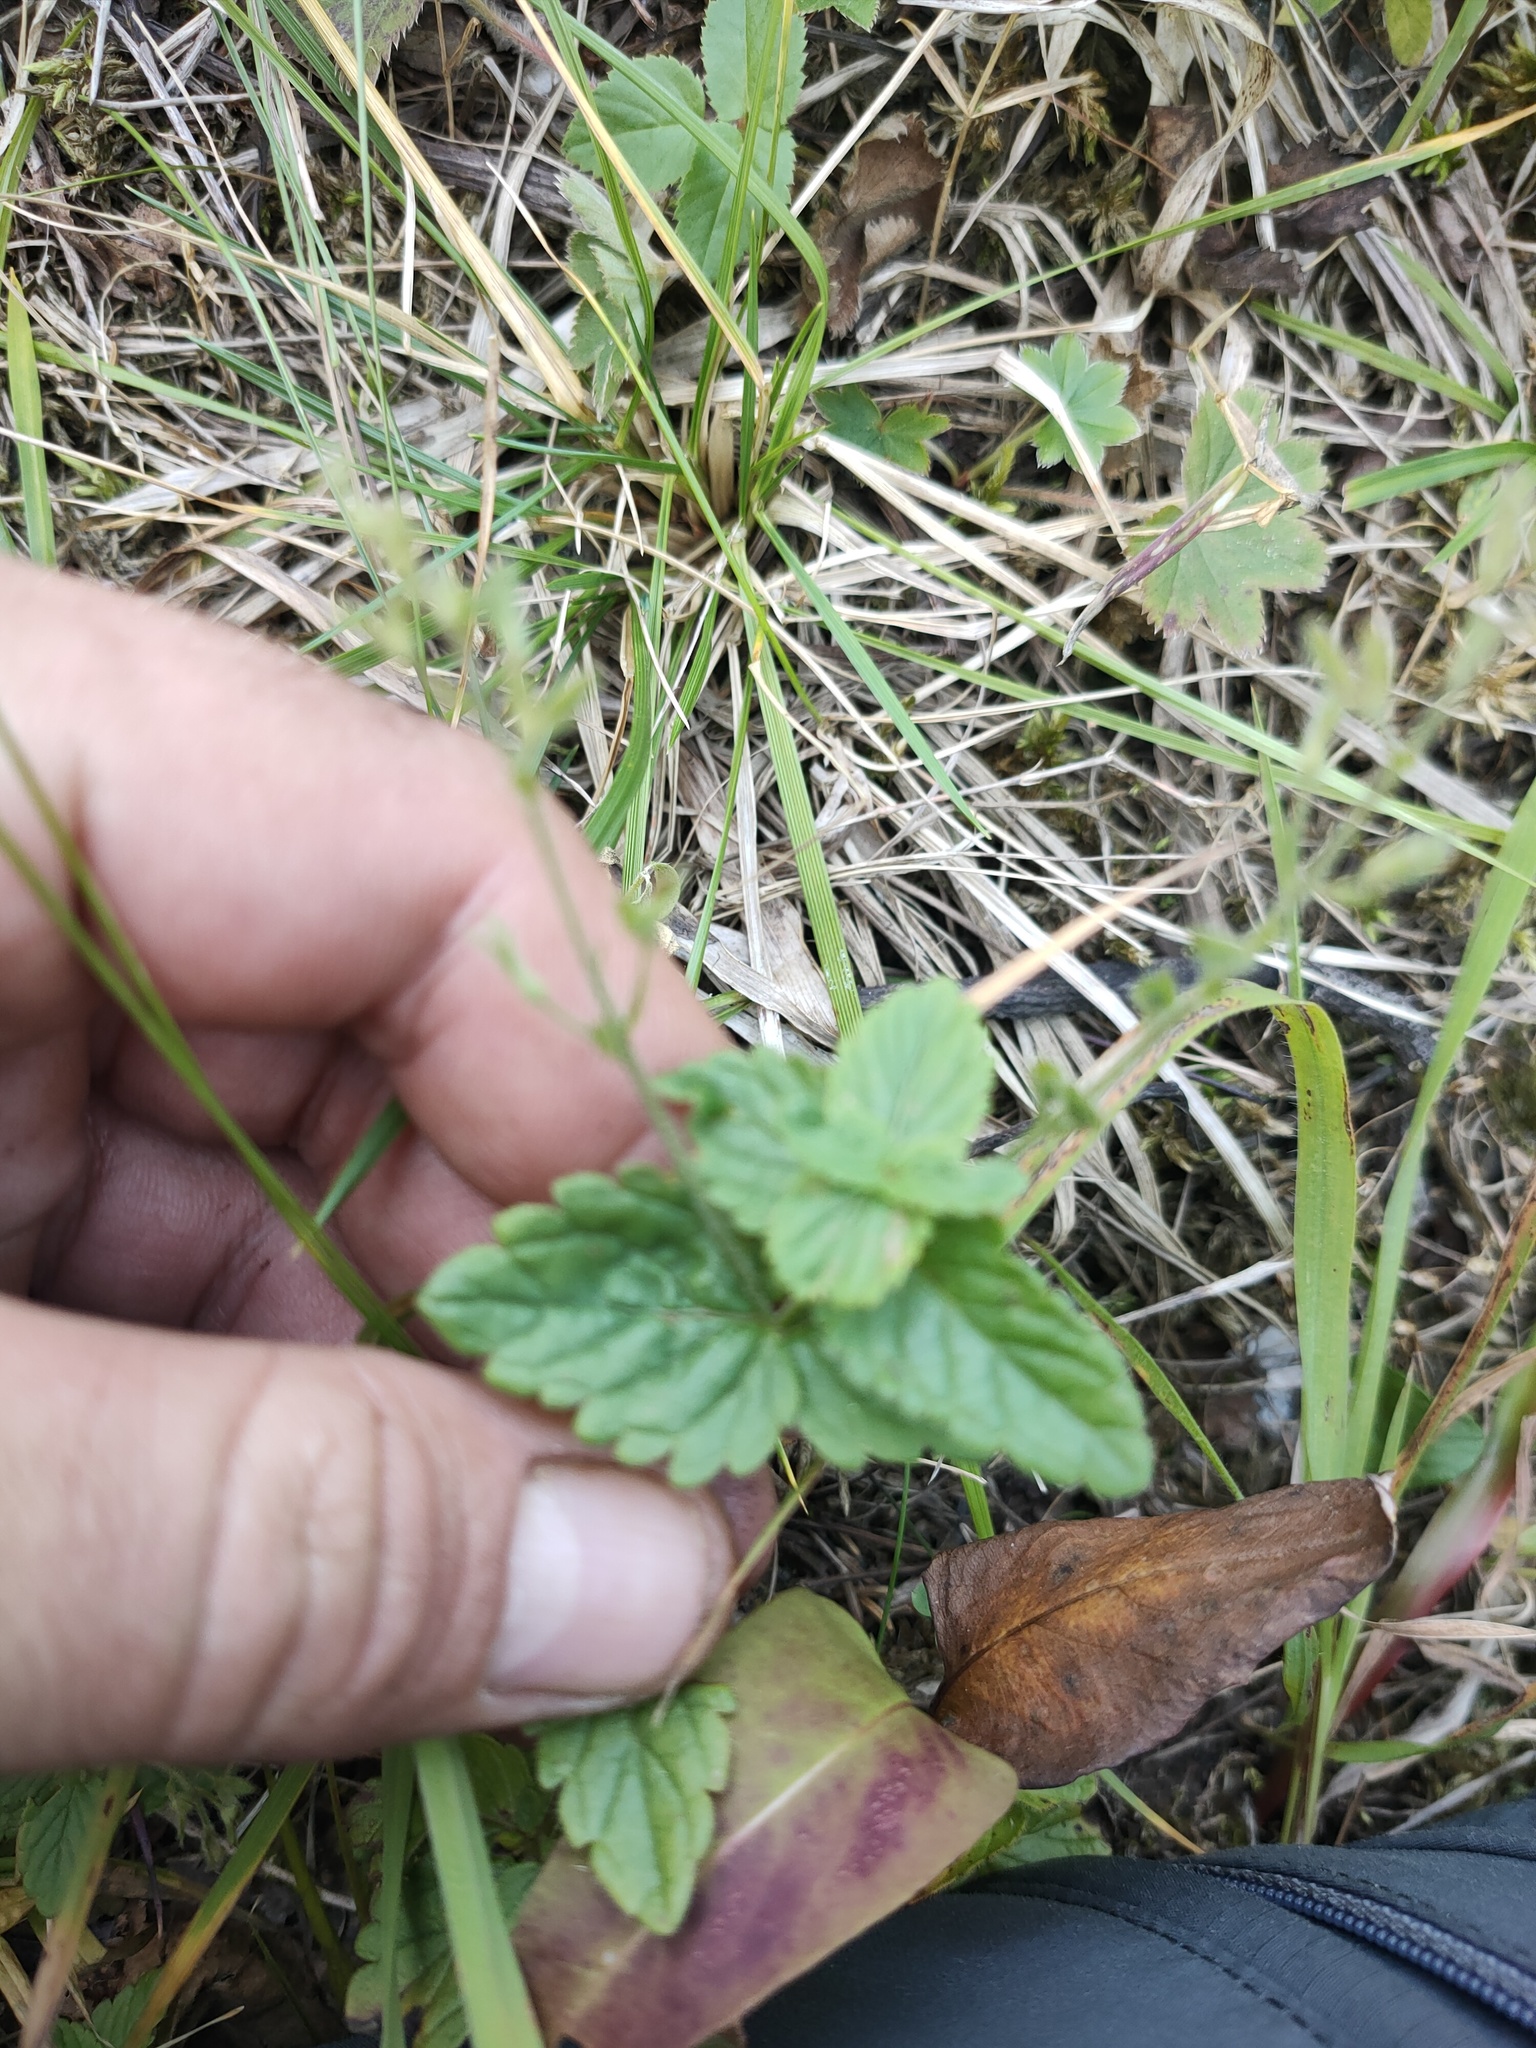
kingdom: Plantae
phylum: Tracheophyta
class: Magnoliopsida
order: Lamiales
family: Plantaginaceae
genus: Veronica
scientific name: Veronica chamaedrys
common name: Germander speedwell
